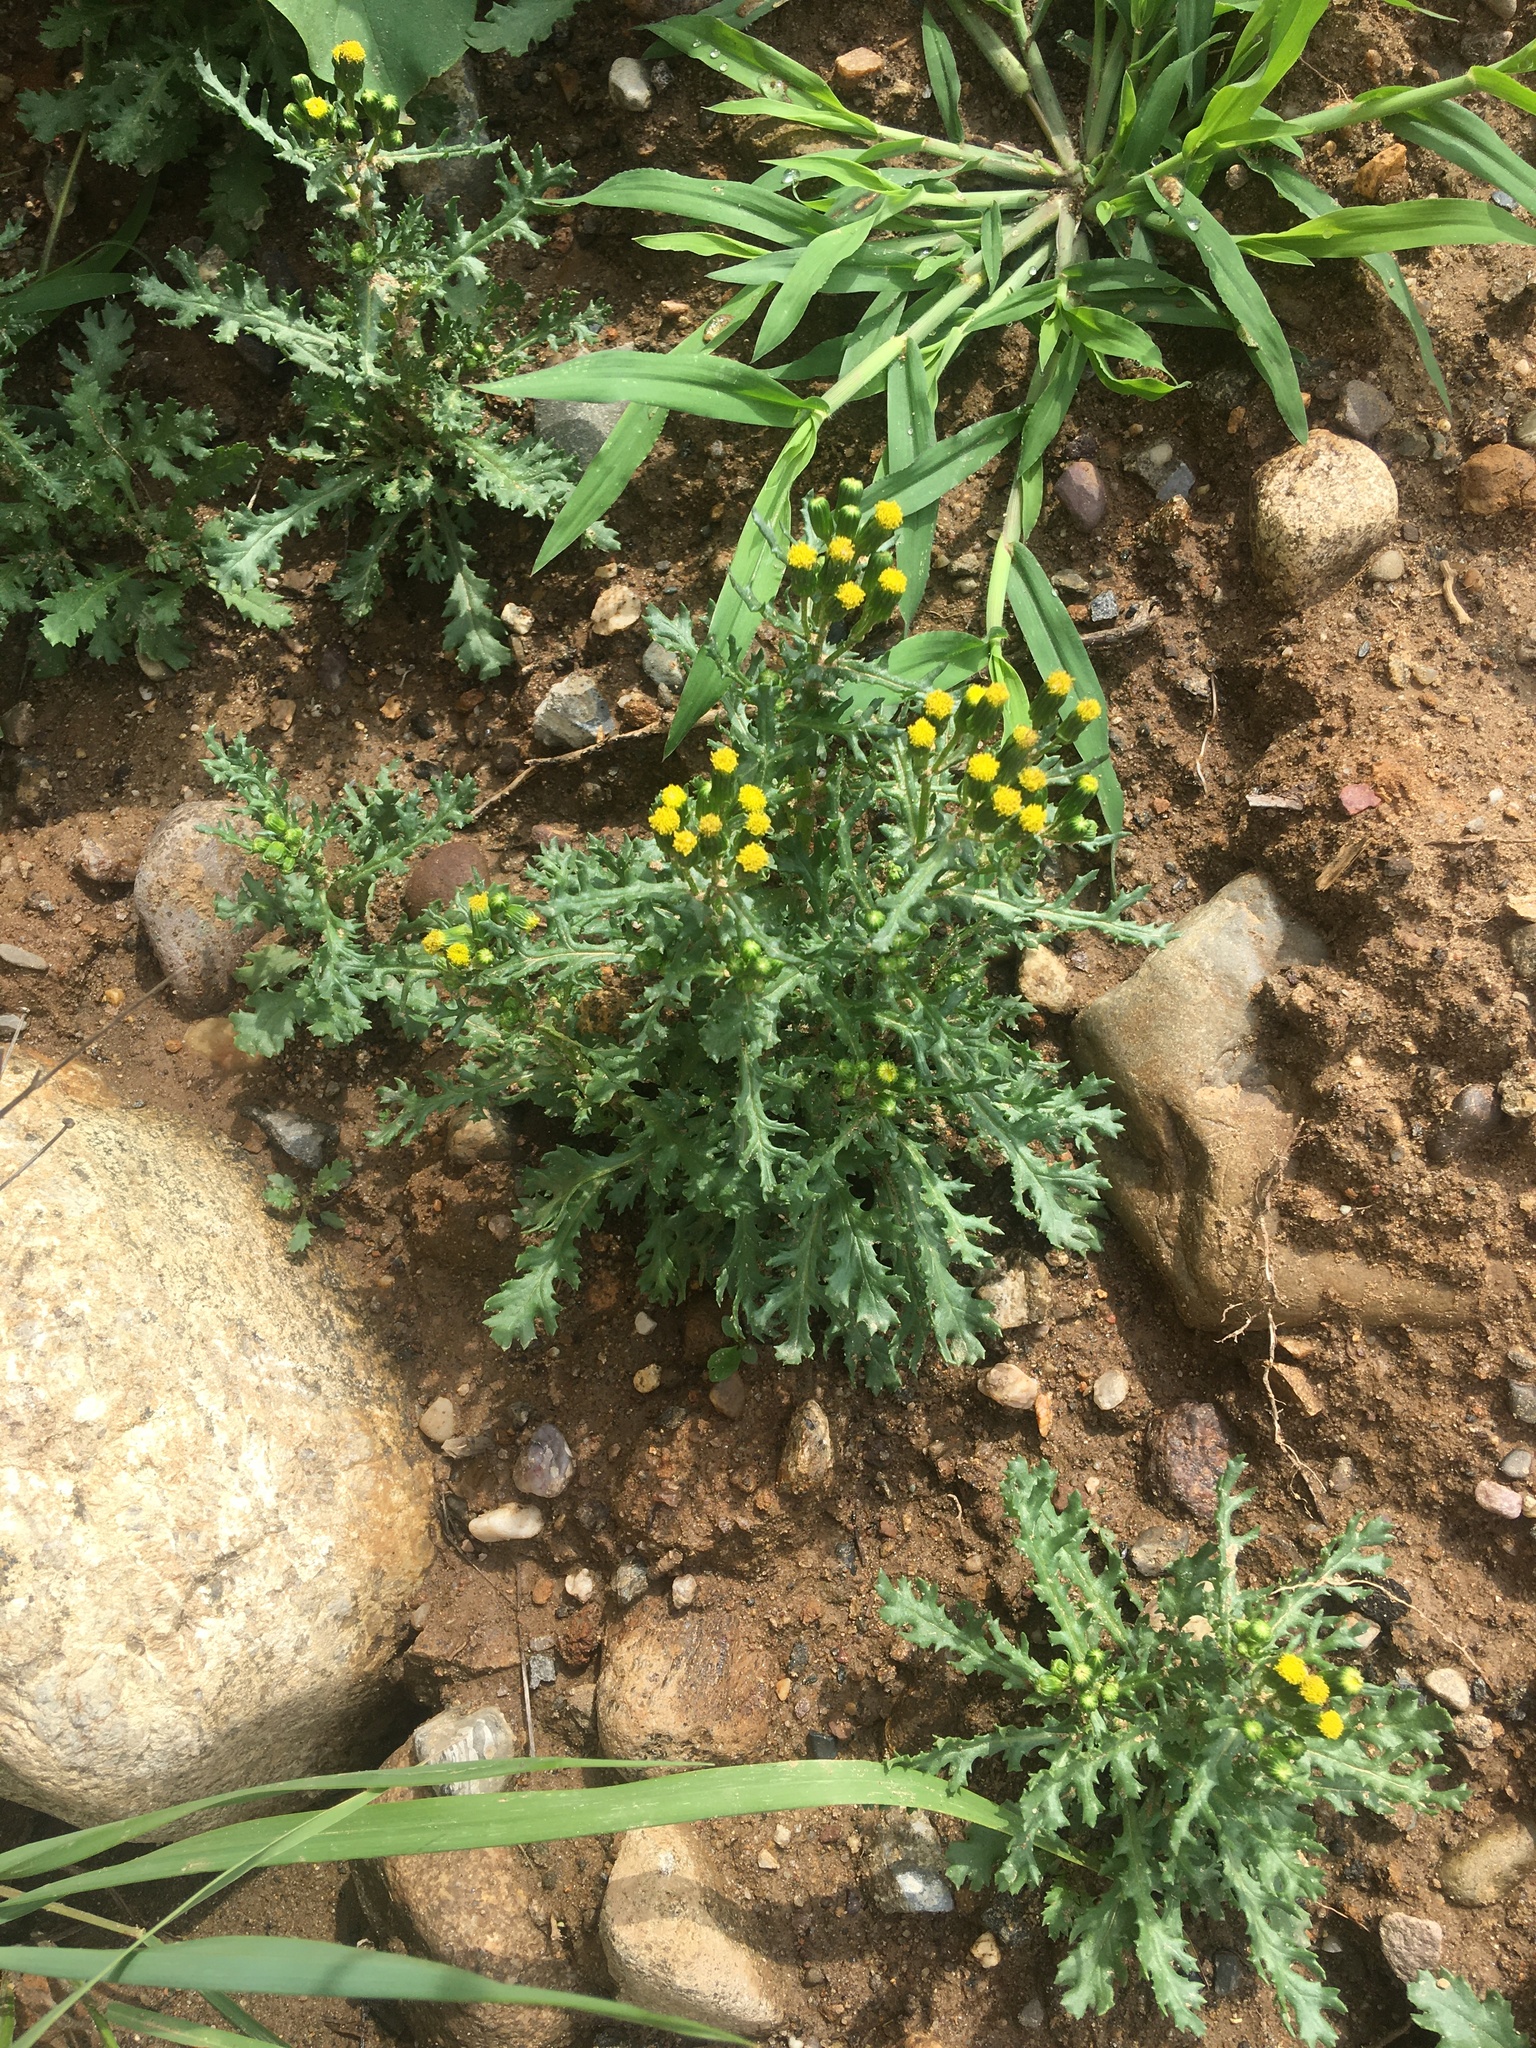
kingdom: Plantae
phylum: Tracheophyta
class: Magnoliopsida
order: Asterales
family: Asteraceae
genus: Senecio
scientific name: Senecio vulgaris
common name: Old-man-in-the-spring
